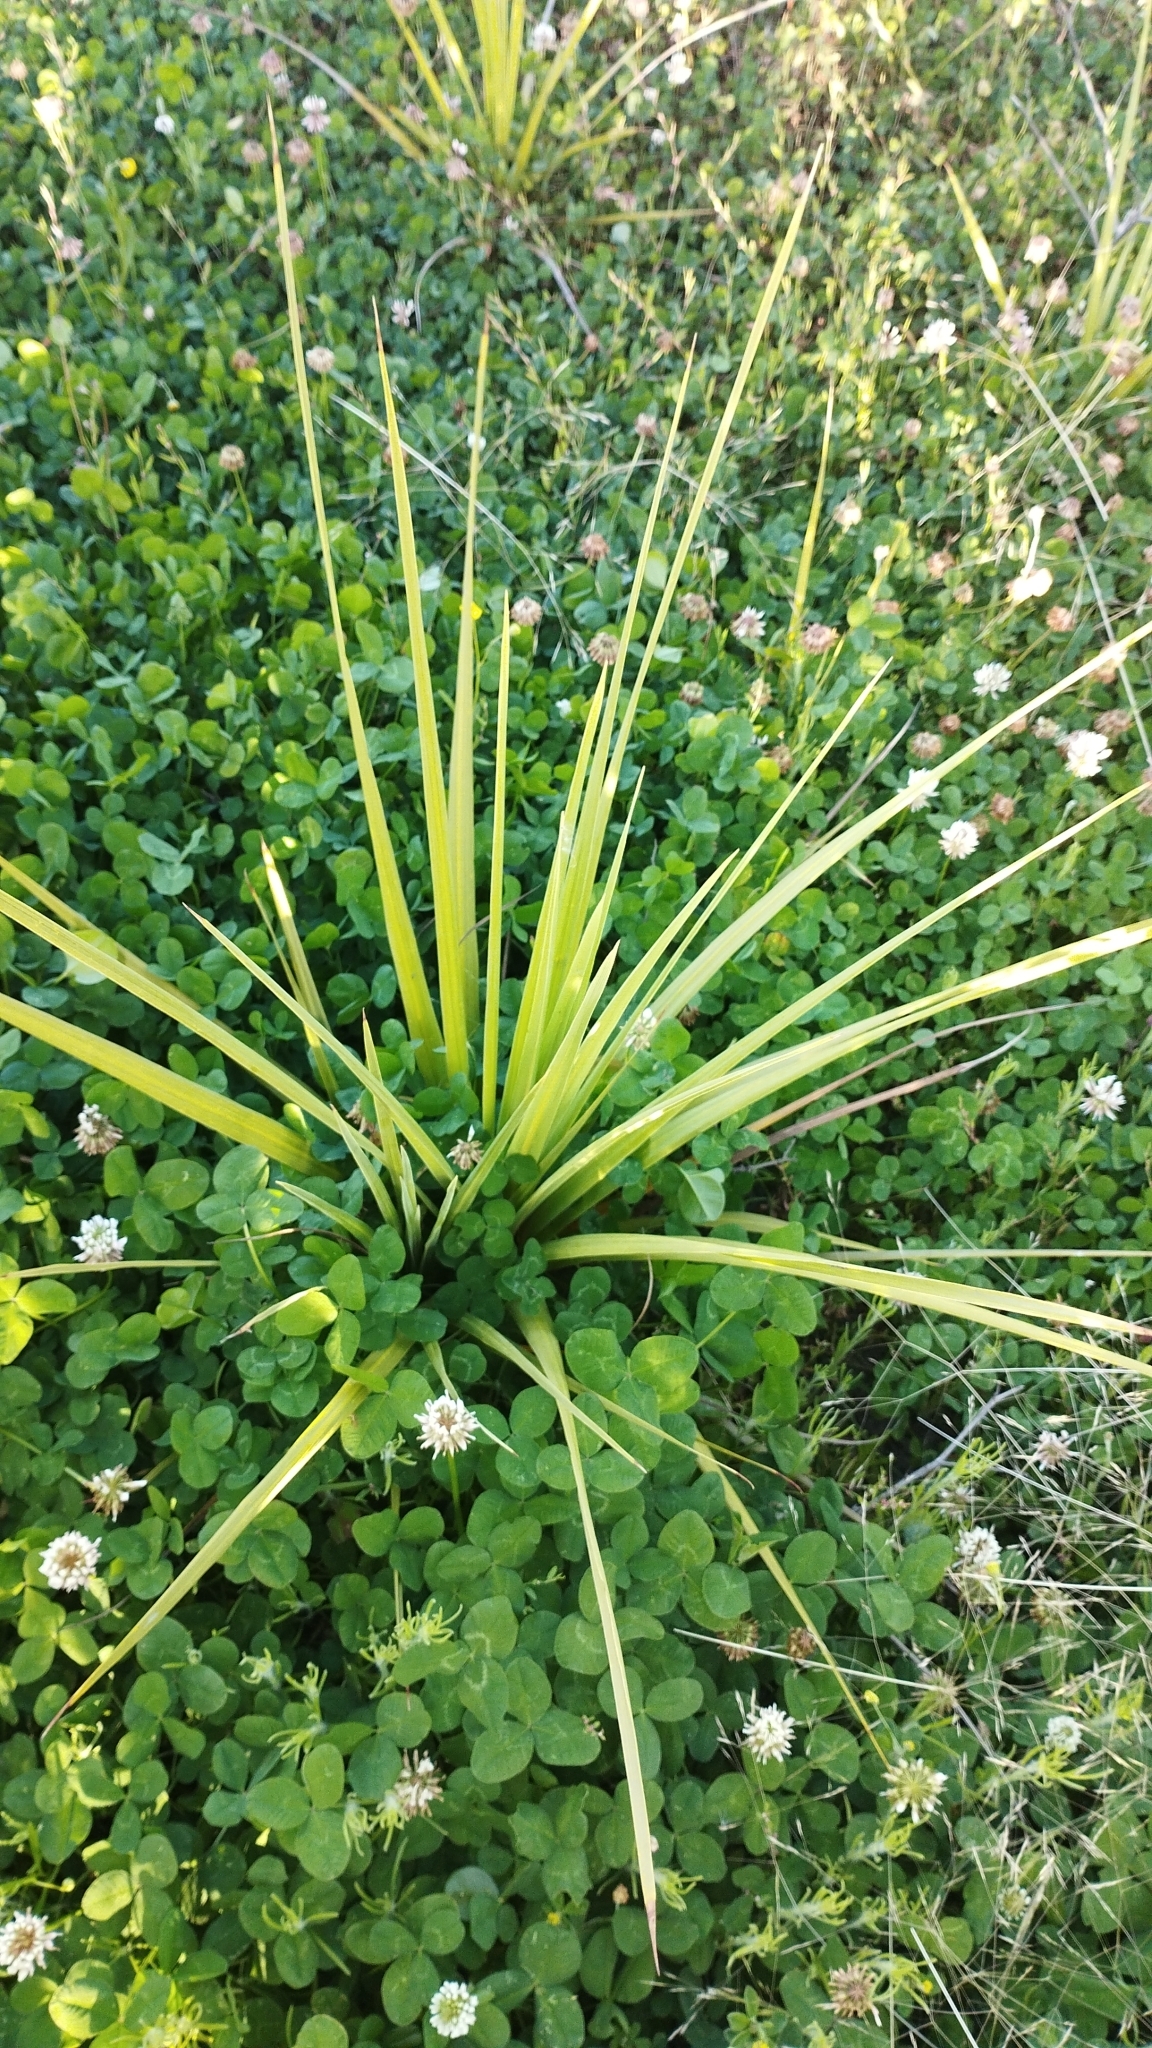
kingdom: Plantae
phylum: Tracheophyta
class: Liliopsida
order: Asparagales
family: Asparagaceae
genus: Cordyline
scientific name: Cordyline australis
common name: Cabbage-palm
